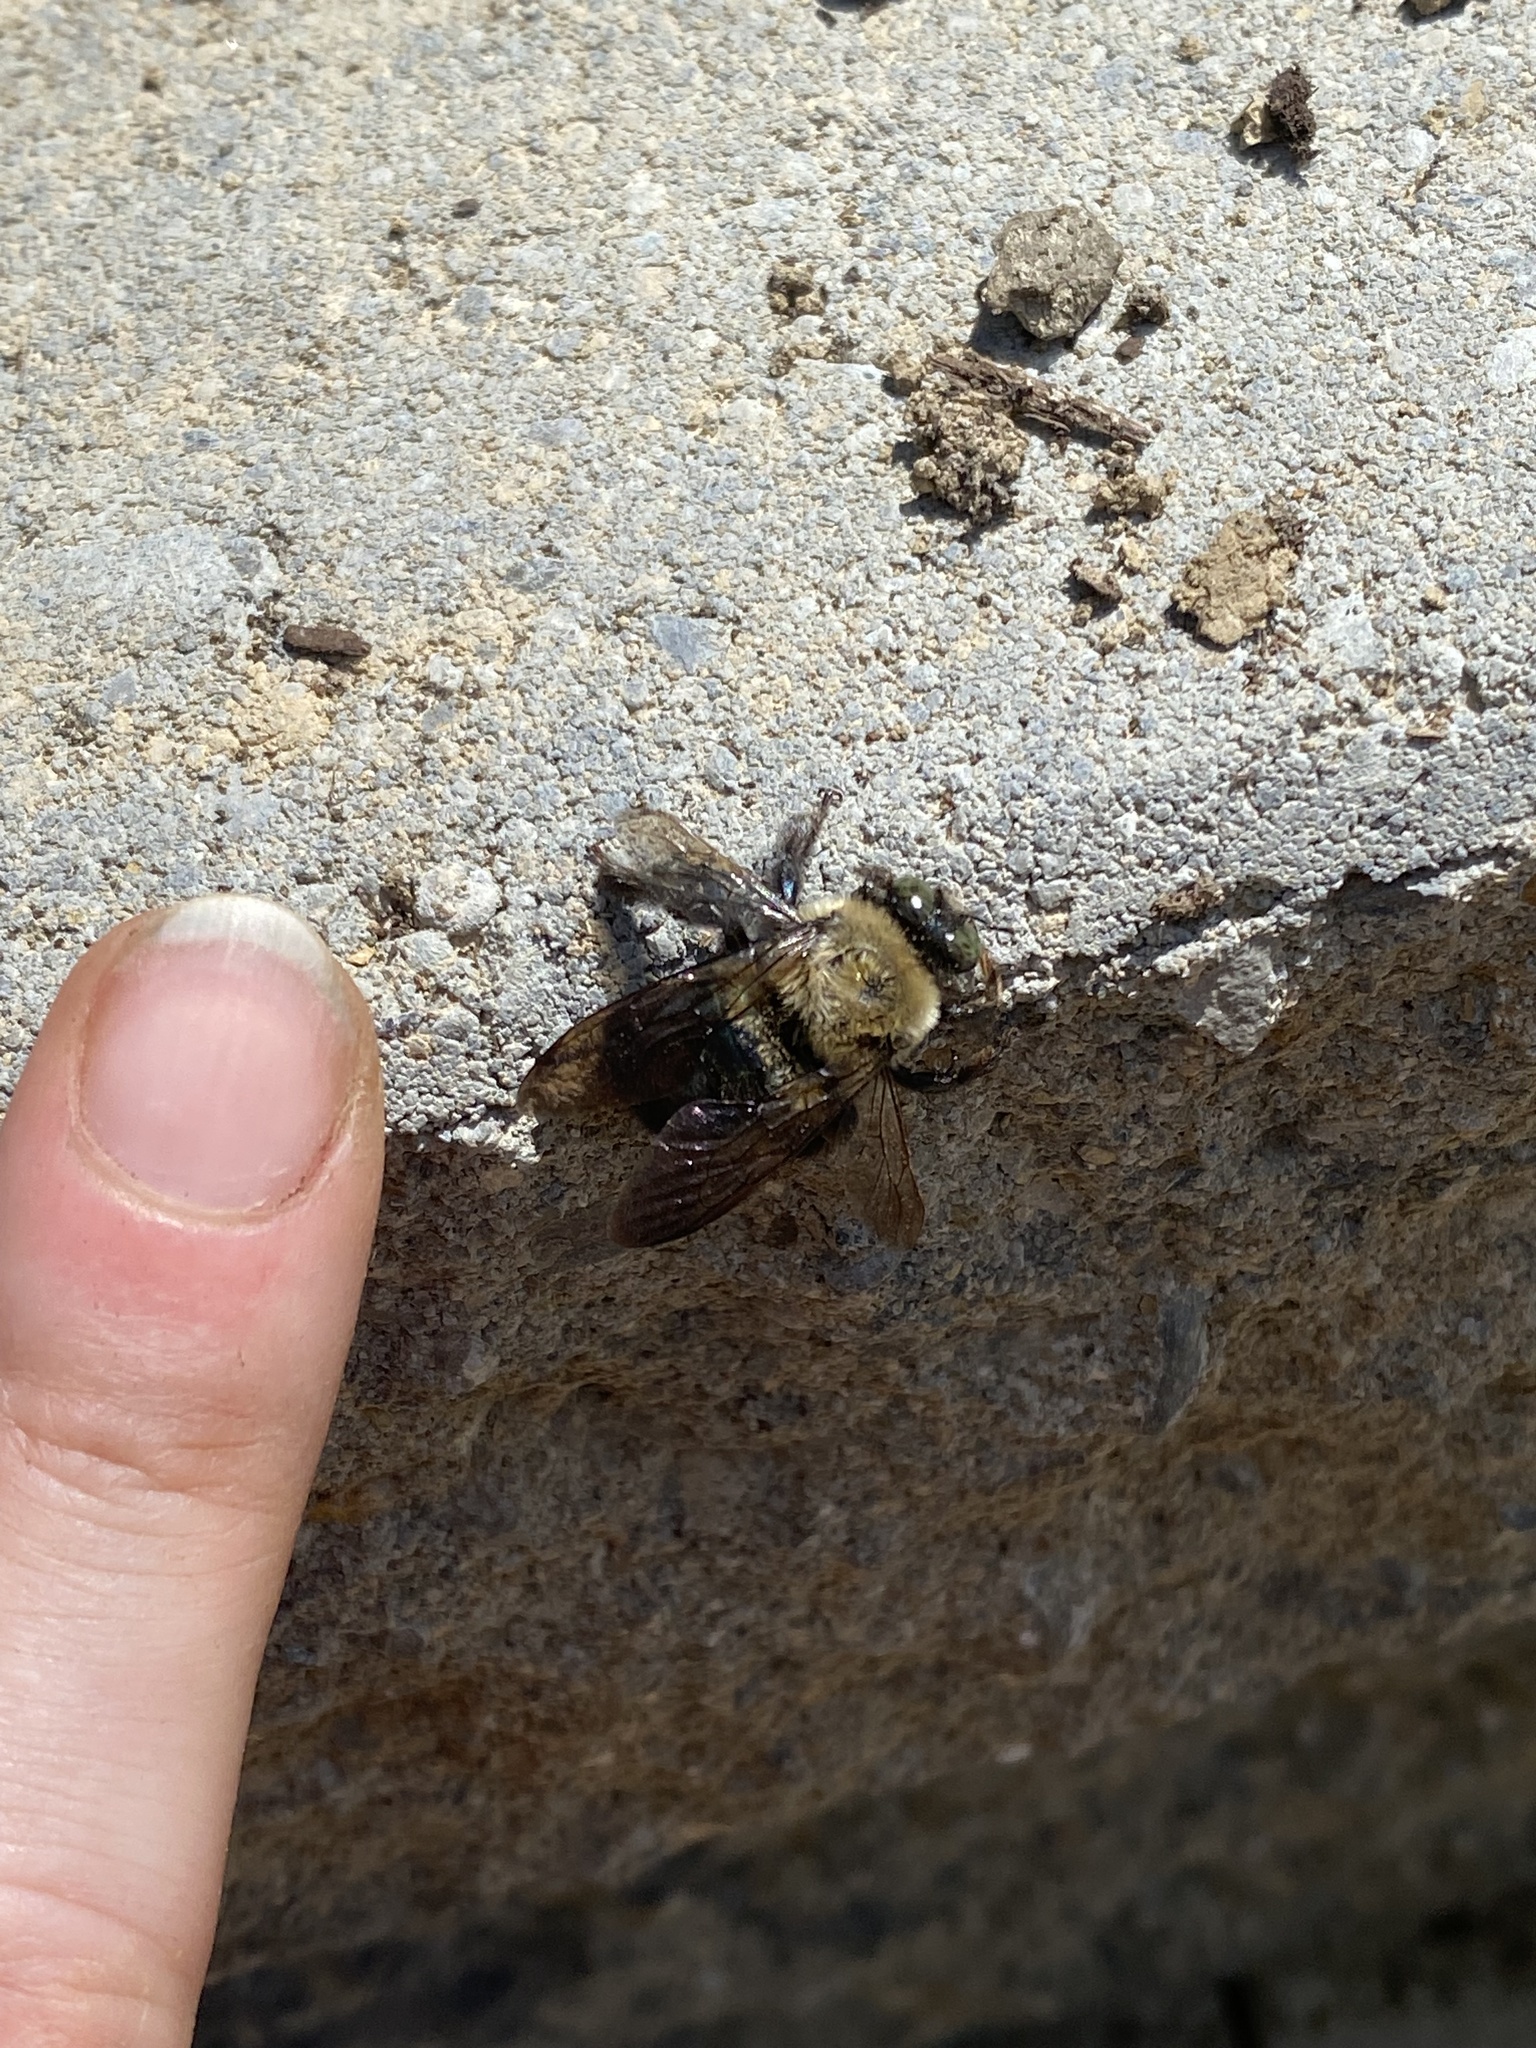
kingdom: Animalia
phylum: Arthropoda
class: Insecta
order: Hymenoptera
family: Apidae
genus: Xylocopa
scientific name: Xylocopa virginica
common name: Carpenter bee
